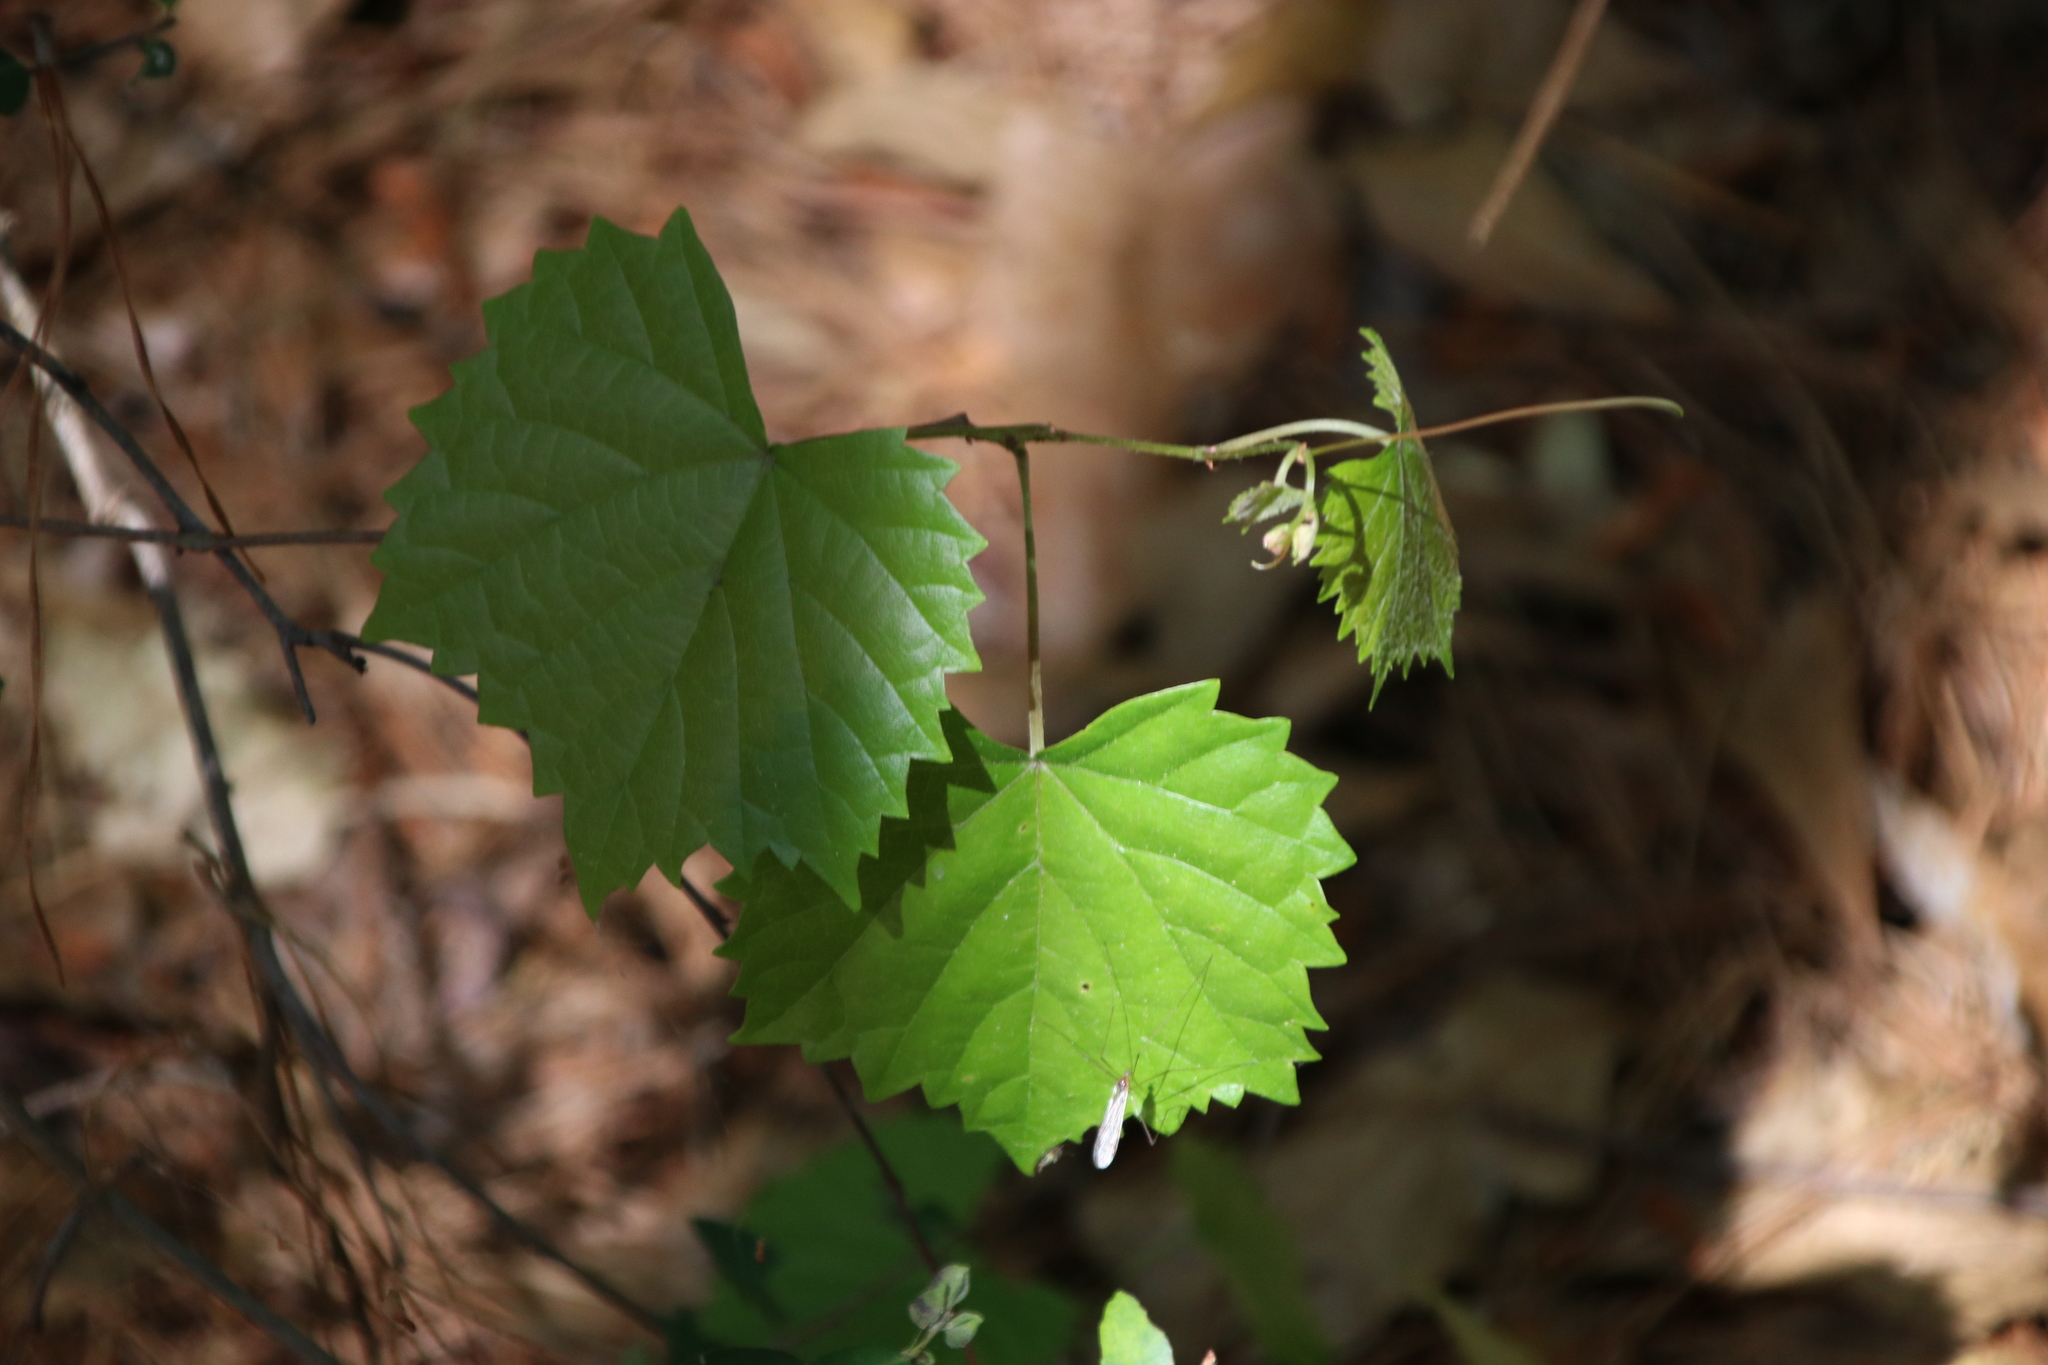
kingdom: Plantae
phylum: Tracheophyta
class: Magnoliopsida
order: Vitales
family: Vitaceae
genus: Vitis
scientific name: Vitis rotundifolia
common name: Muscadine grape
